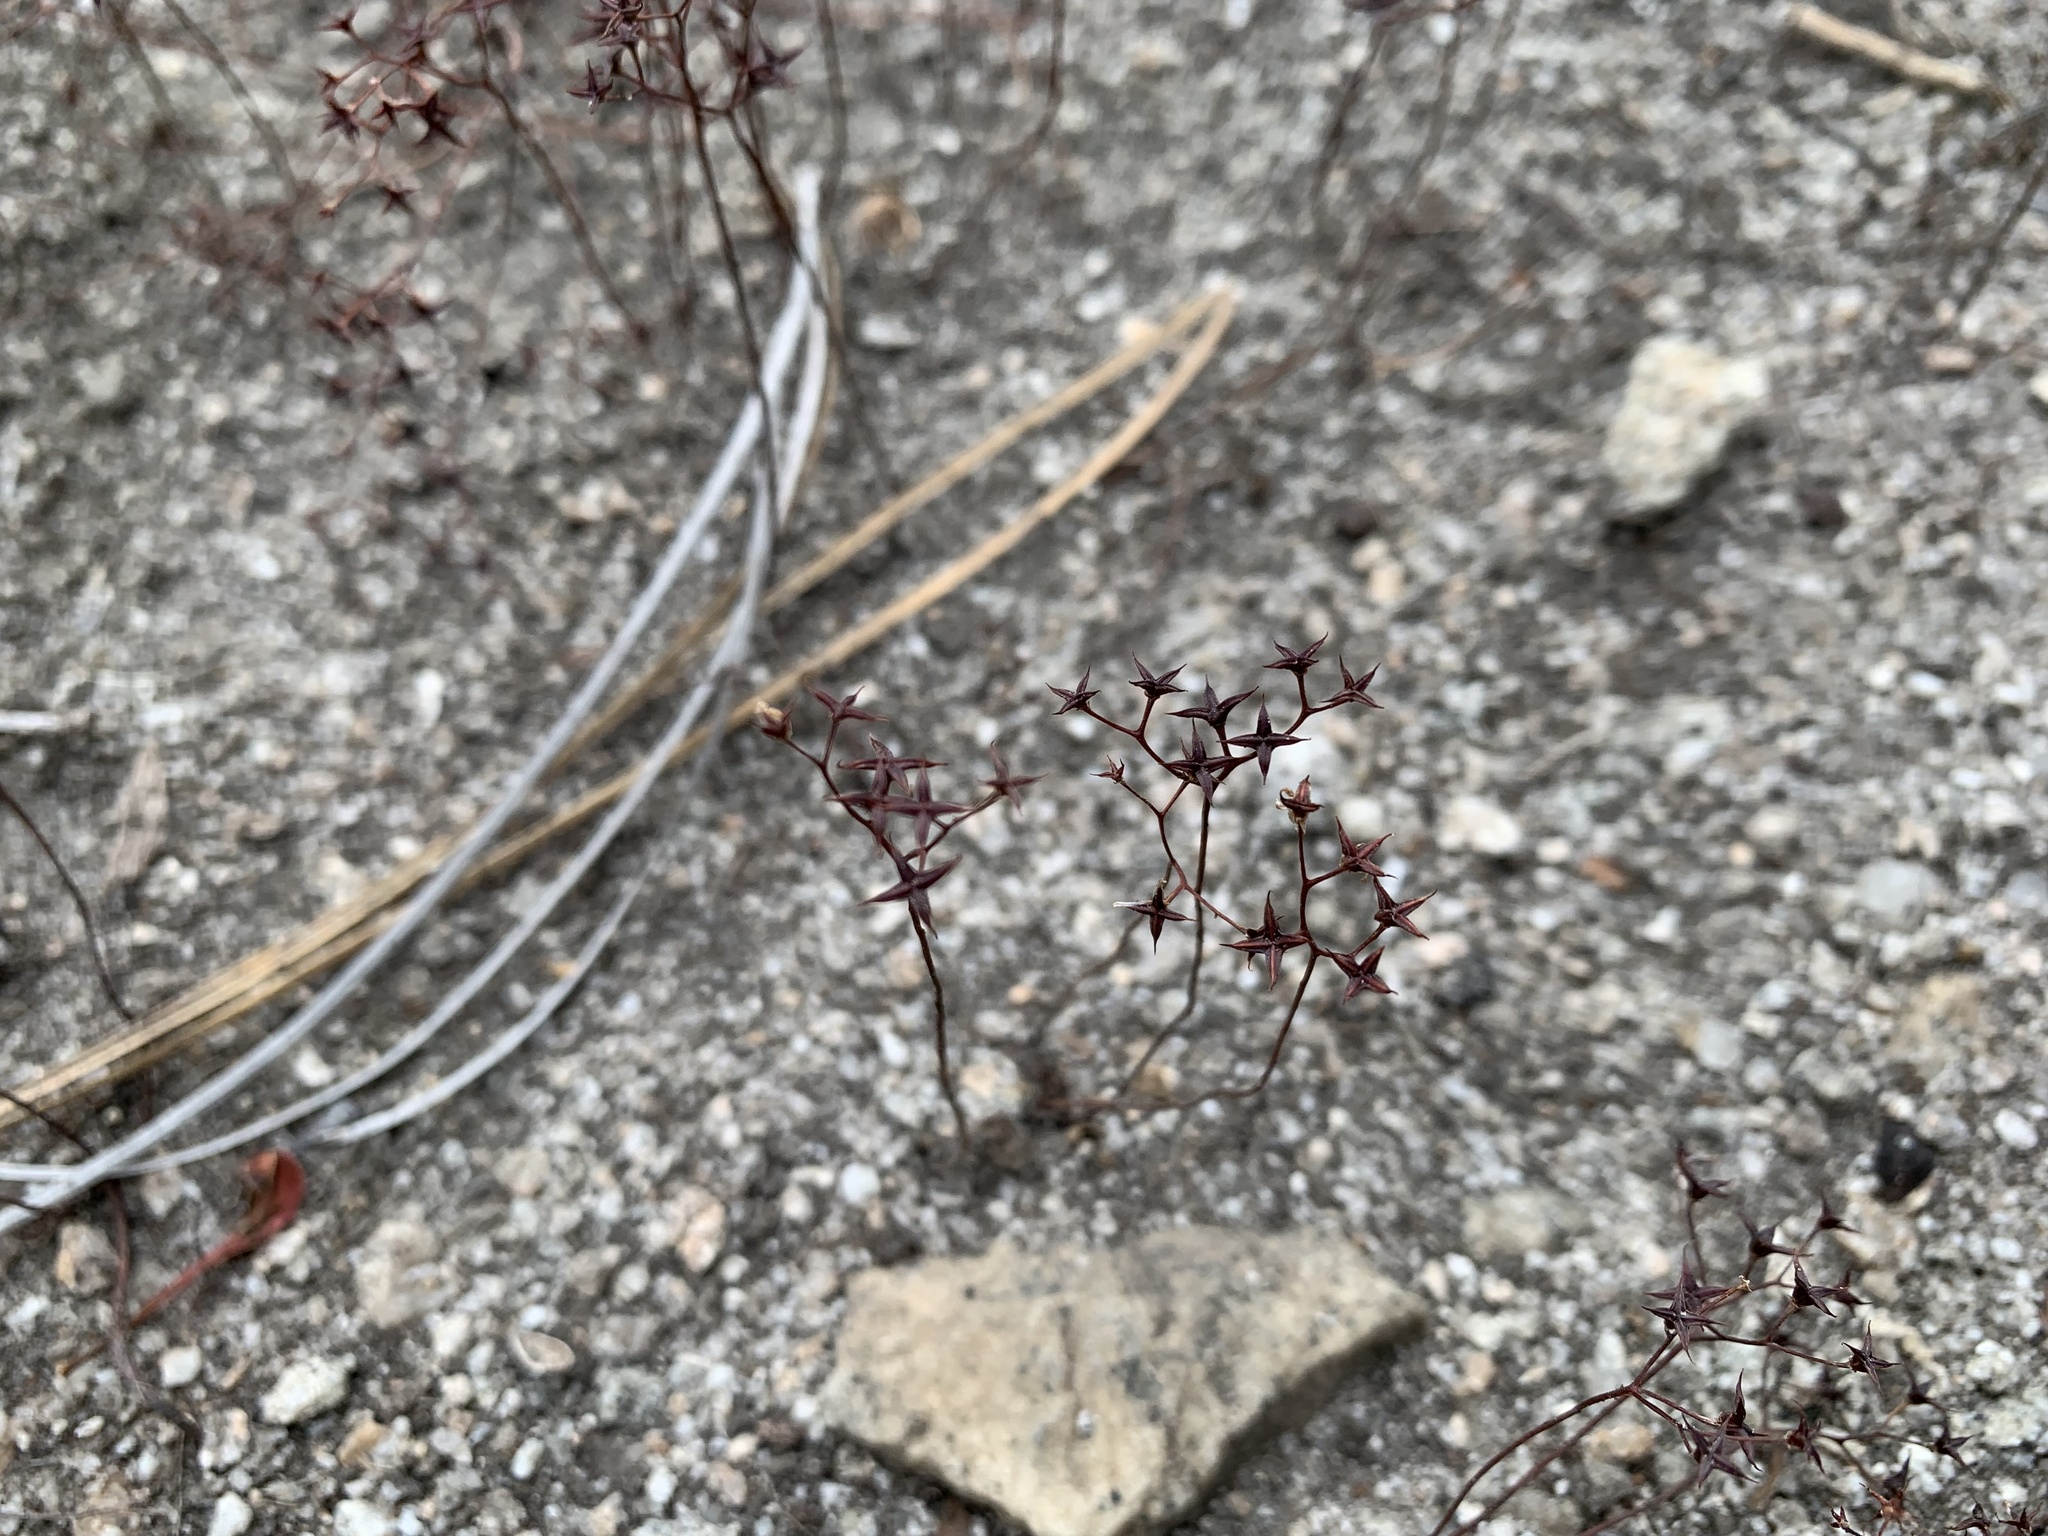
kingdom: Plantae
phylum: Tracheophyta
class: Magnoliopsida
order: Saxifragales
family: Crassulaceae
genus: Sedum
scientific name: Sedum smallii
